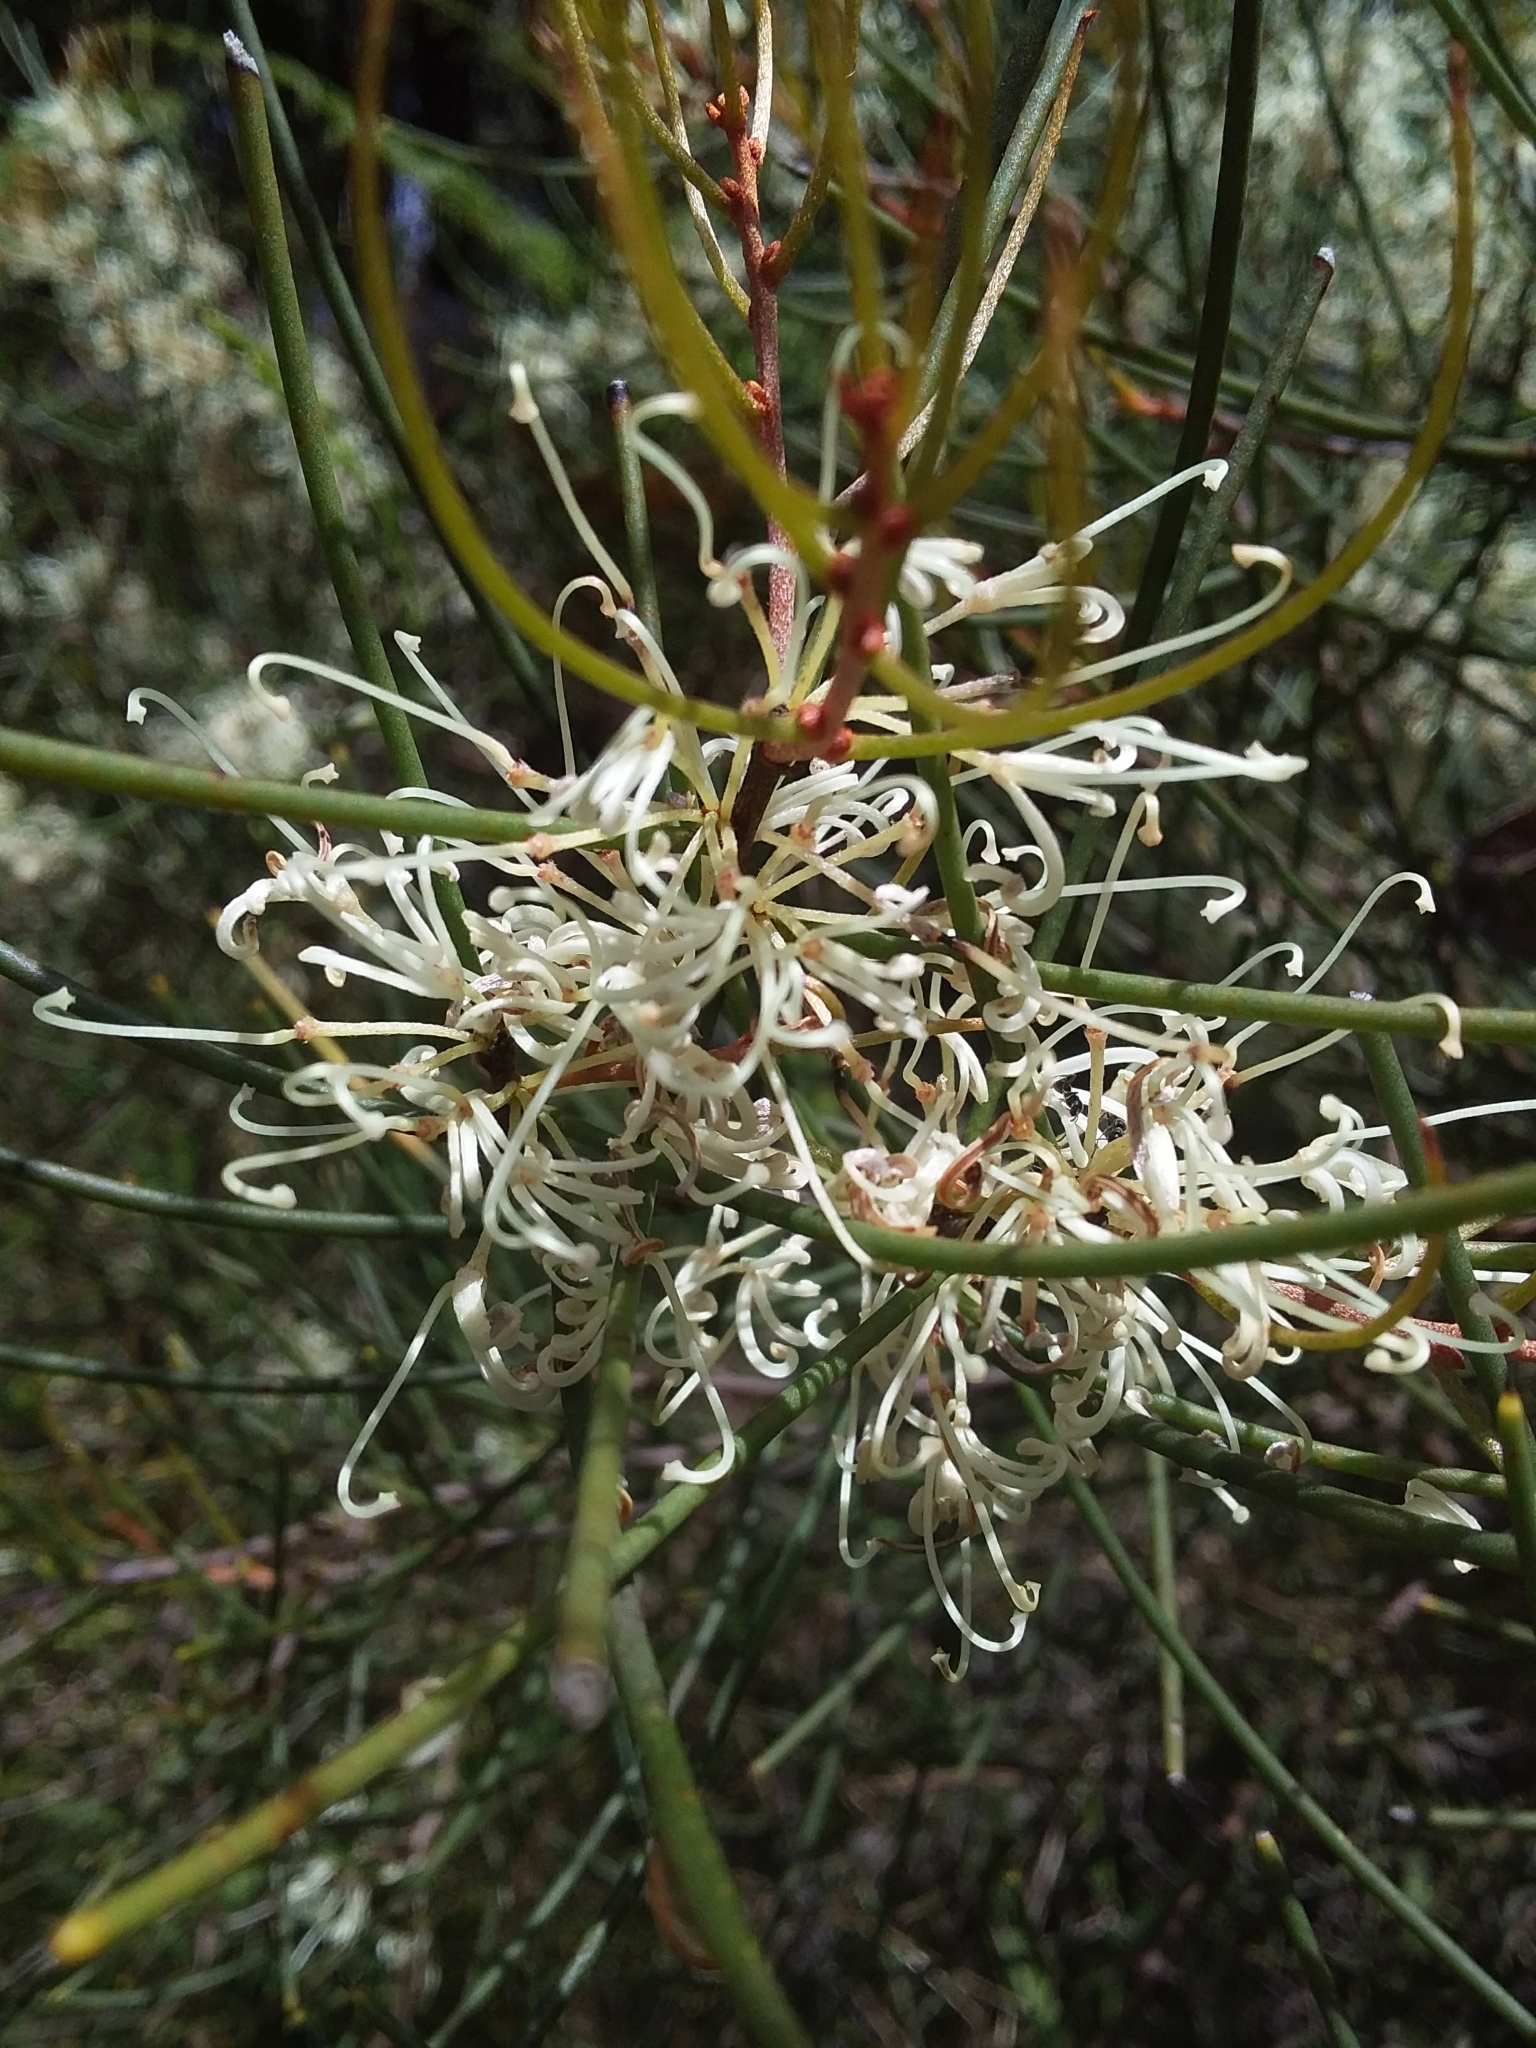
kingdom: Plantae
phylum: Tracheophyta
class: Magnoliopsida
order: Proteales
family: Proteaceae
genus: Hakea
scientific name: Hakea rostrata
